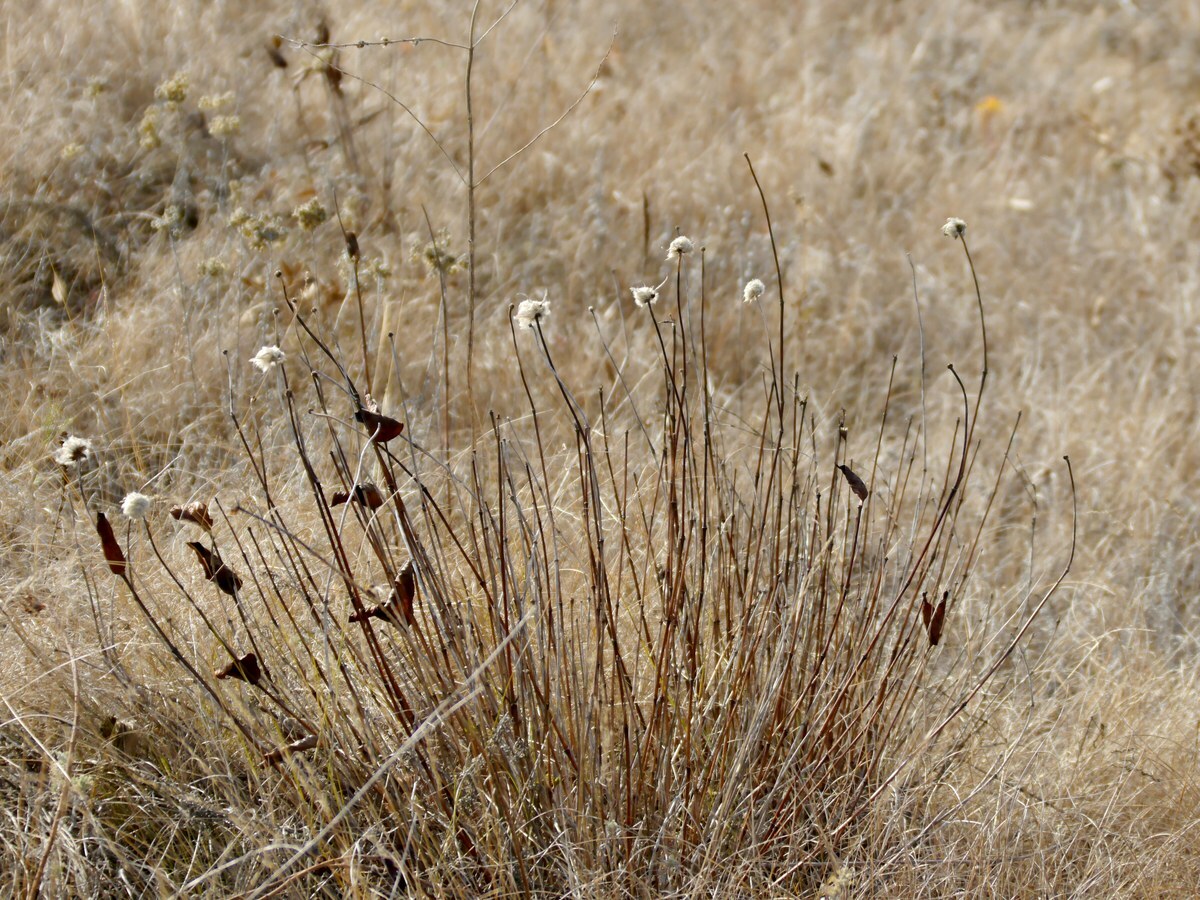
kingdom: Plantae
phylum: Tracheophyta
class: Magnoliopsida
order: Ranunculales
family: Ranunculaceae
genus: Clematis
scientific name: Clematis integrifolia
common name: Solitary clematis
